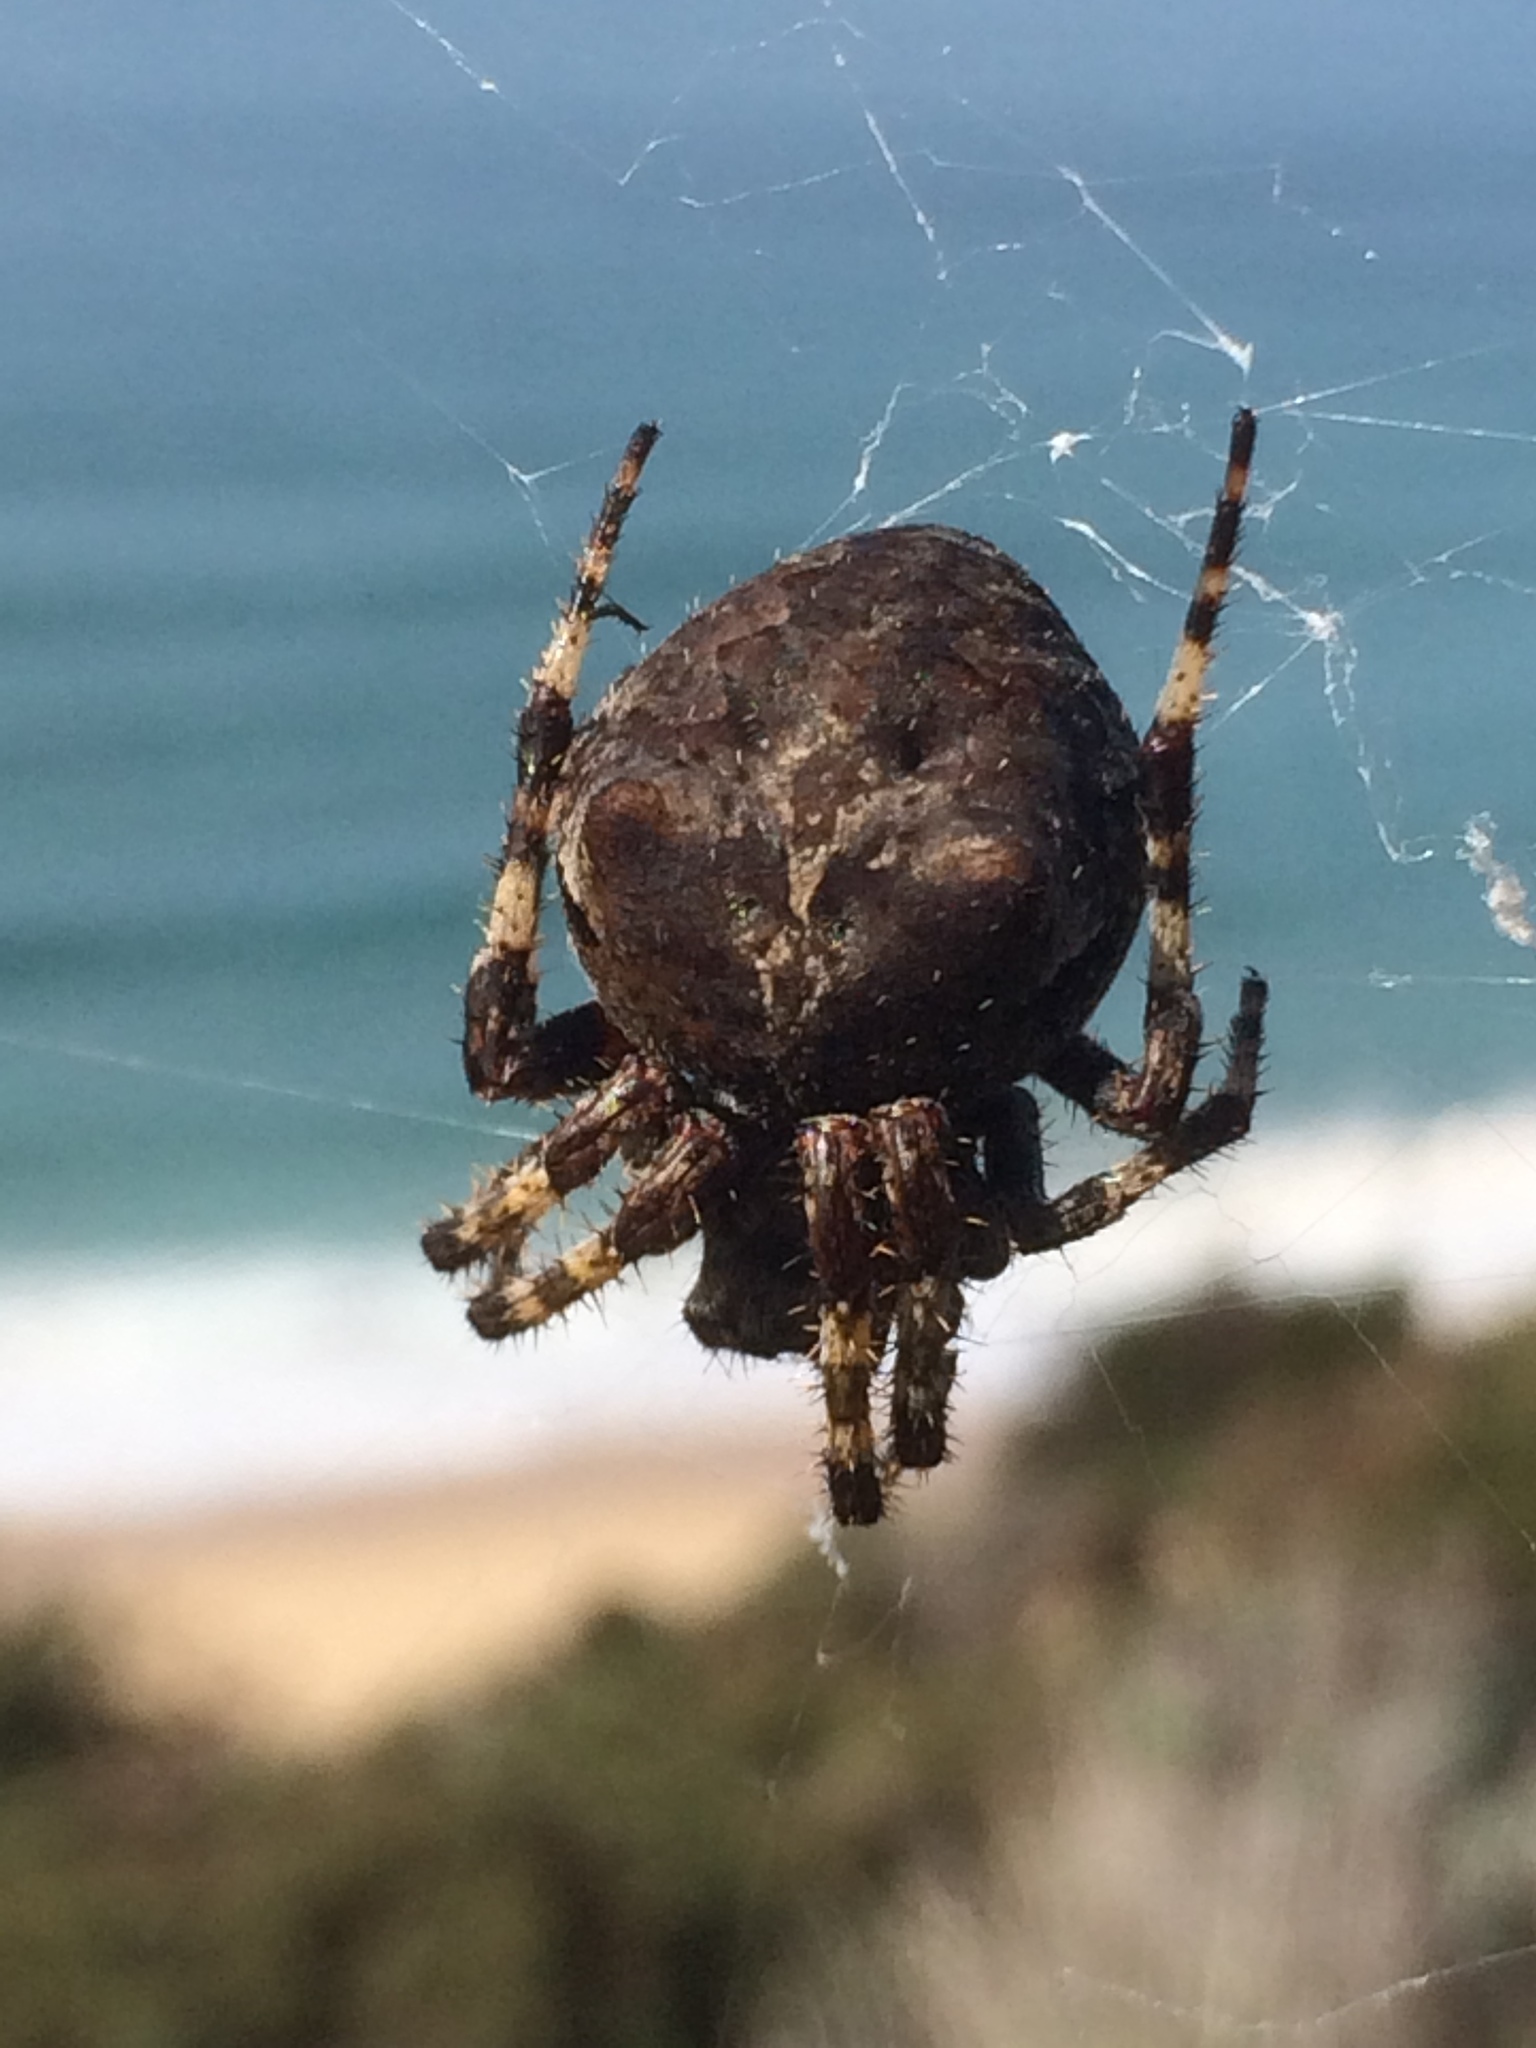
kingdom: Animalia
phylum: Arthropoda
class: Arachnida
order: Araneae
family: Araneidae
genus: Araneus
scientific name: Araneus angulatus
